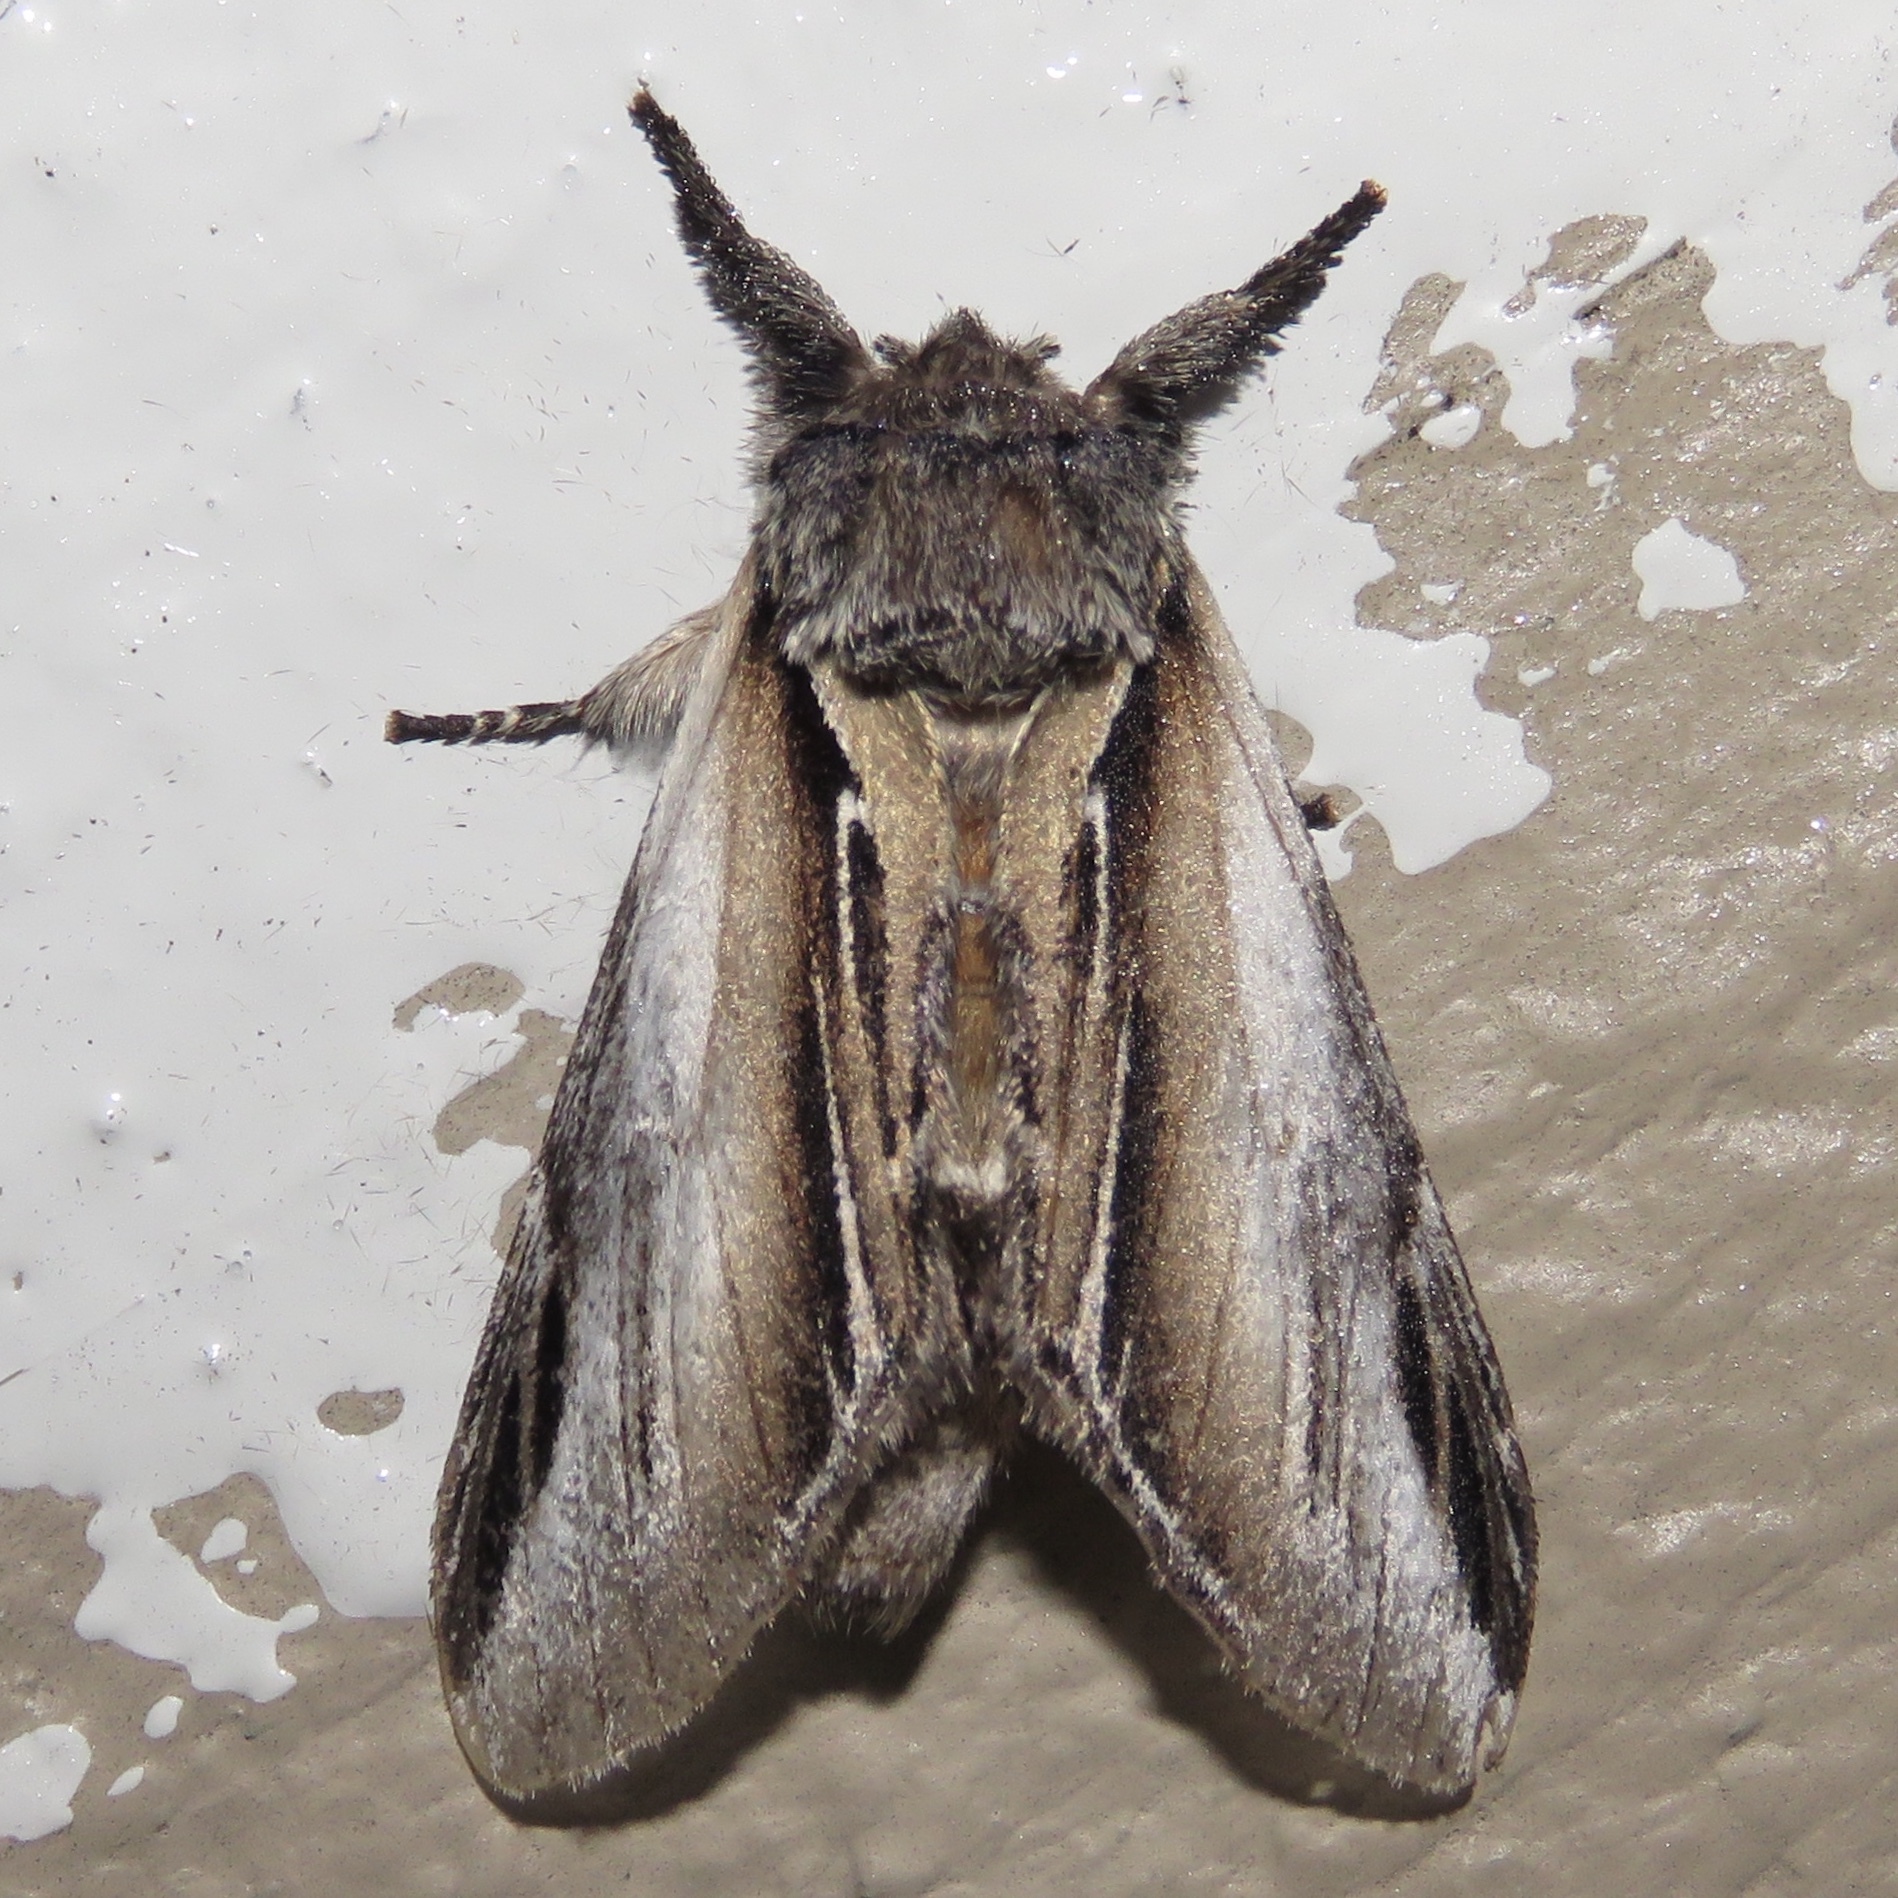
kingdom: Animalia
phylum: Arthropoda
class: Insecta
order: Lepidoptera
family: Notodontidae
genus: Pheosia
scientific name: Pheosia rimosa
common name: Black-rimmed prominent
